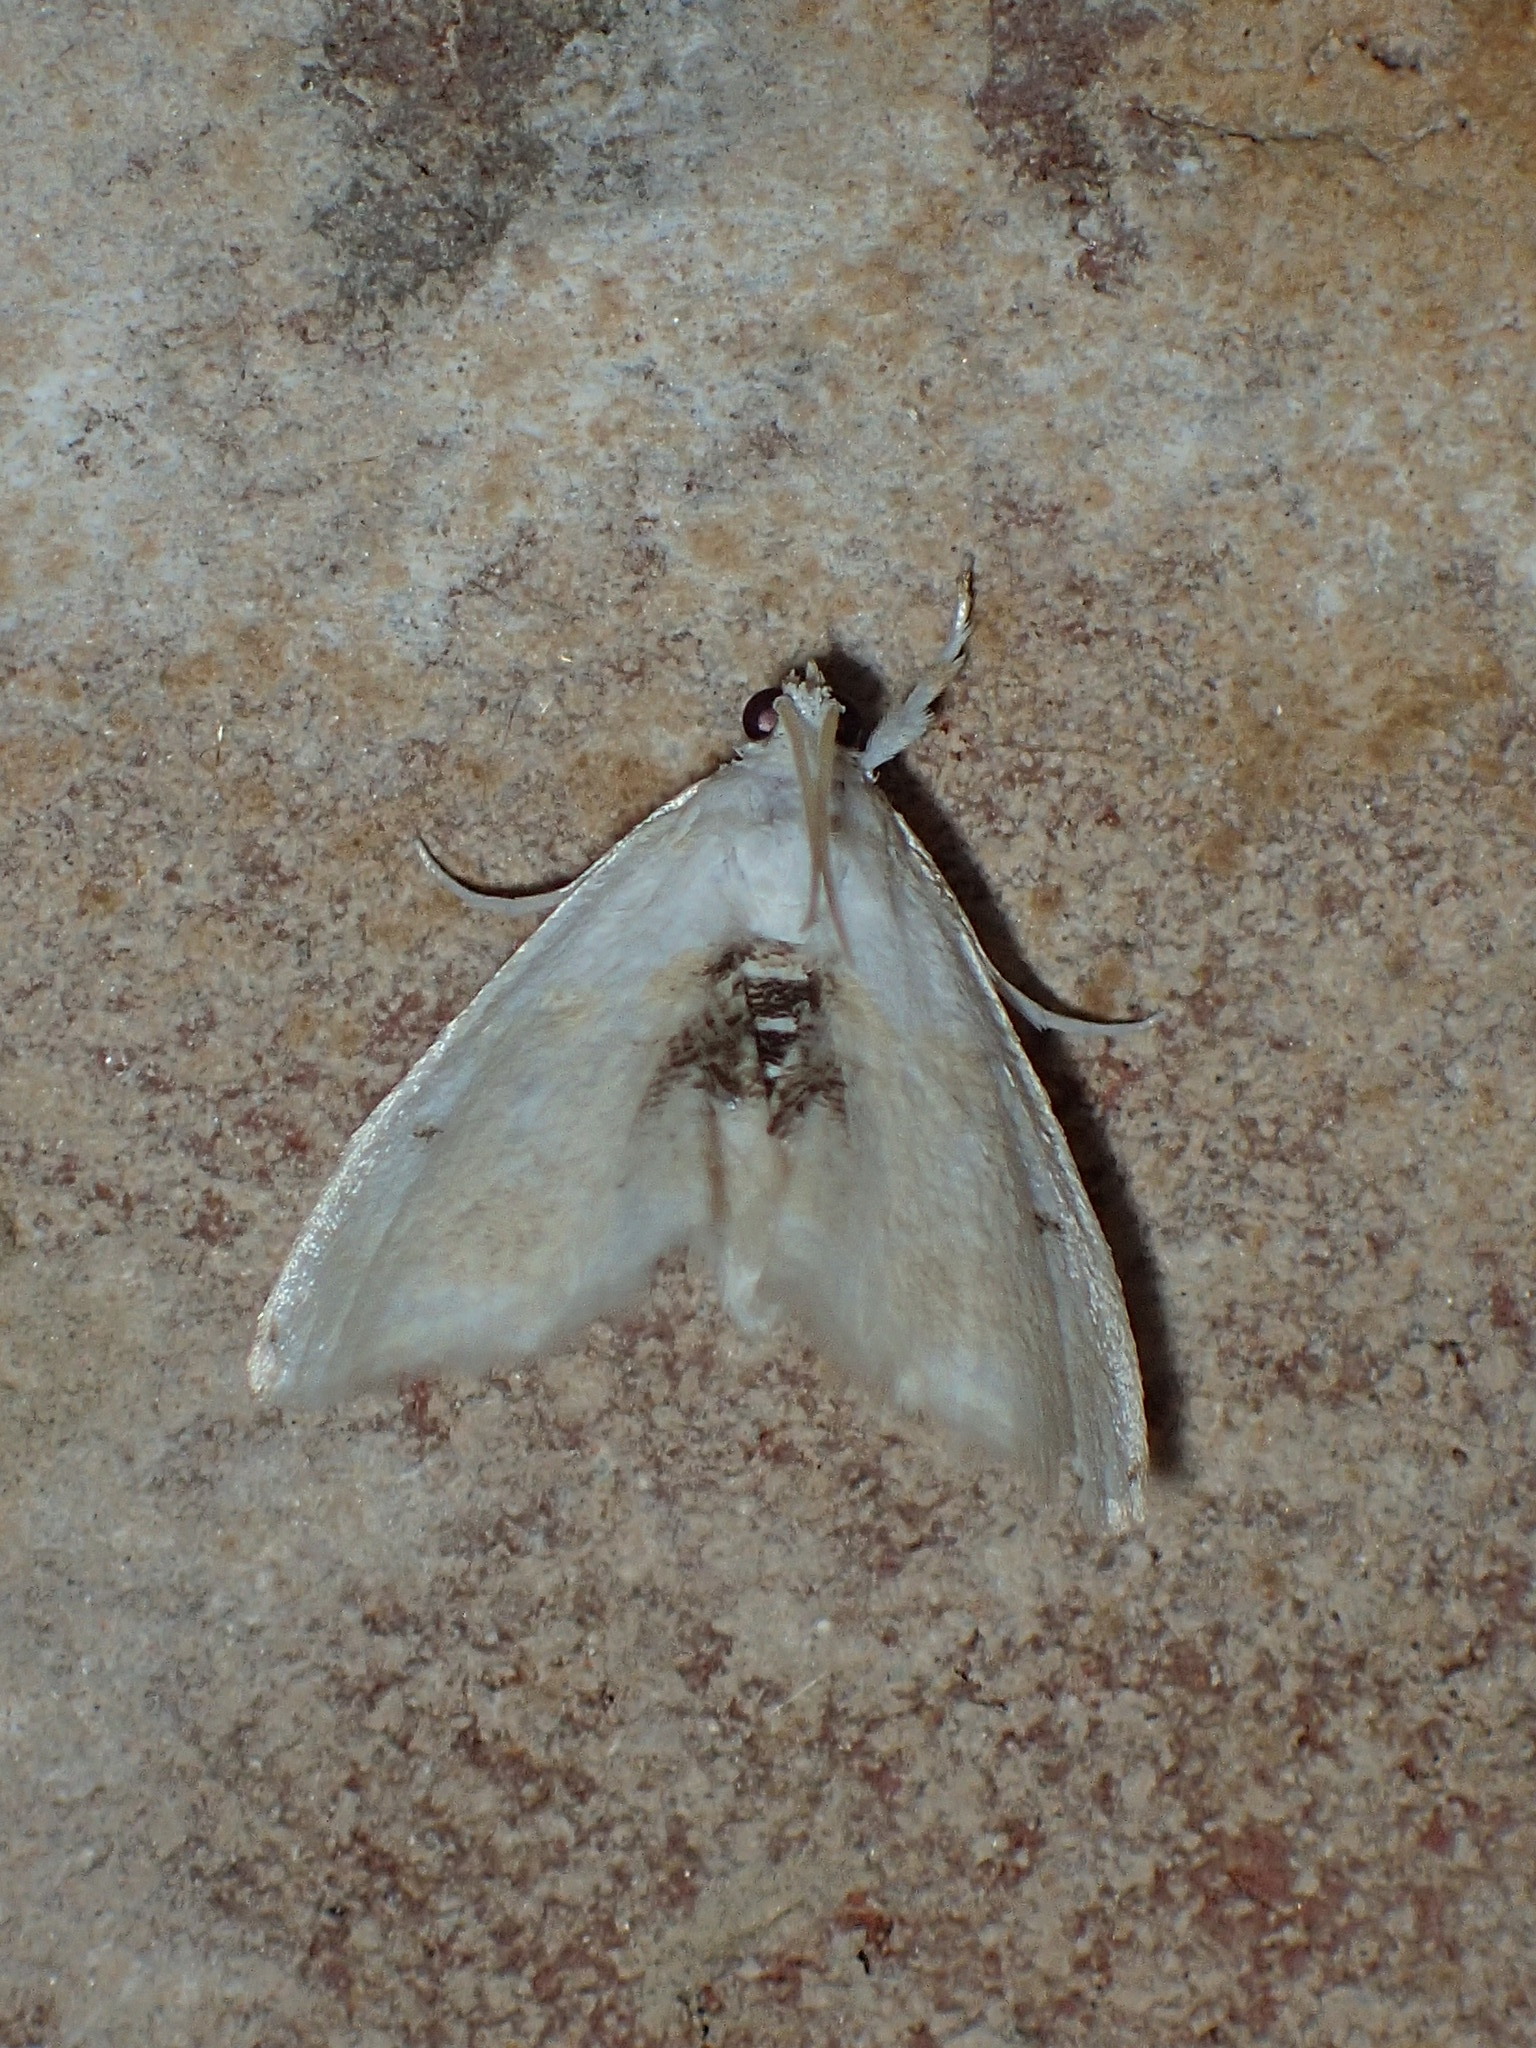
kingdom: Animalia
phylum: Arthropoda
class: Insecta
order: Lepidoptera
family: Crambidae
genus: Lipocosma
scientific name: Lipocosma sicalis
